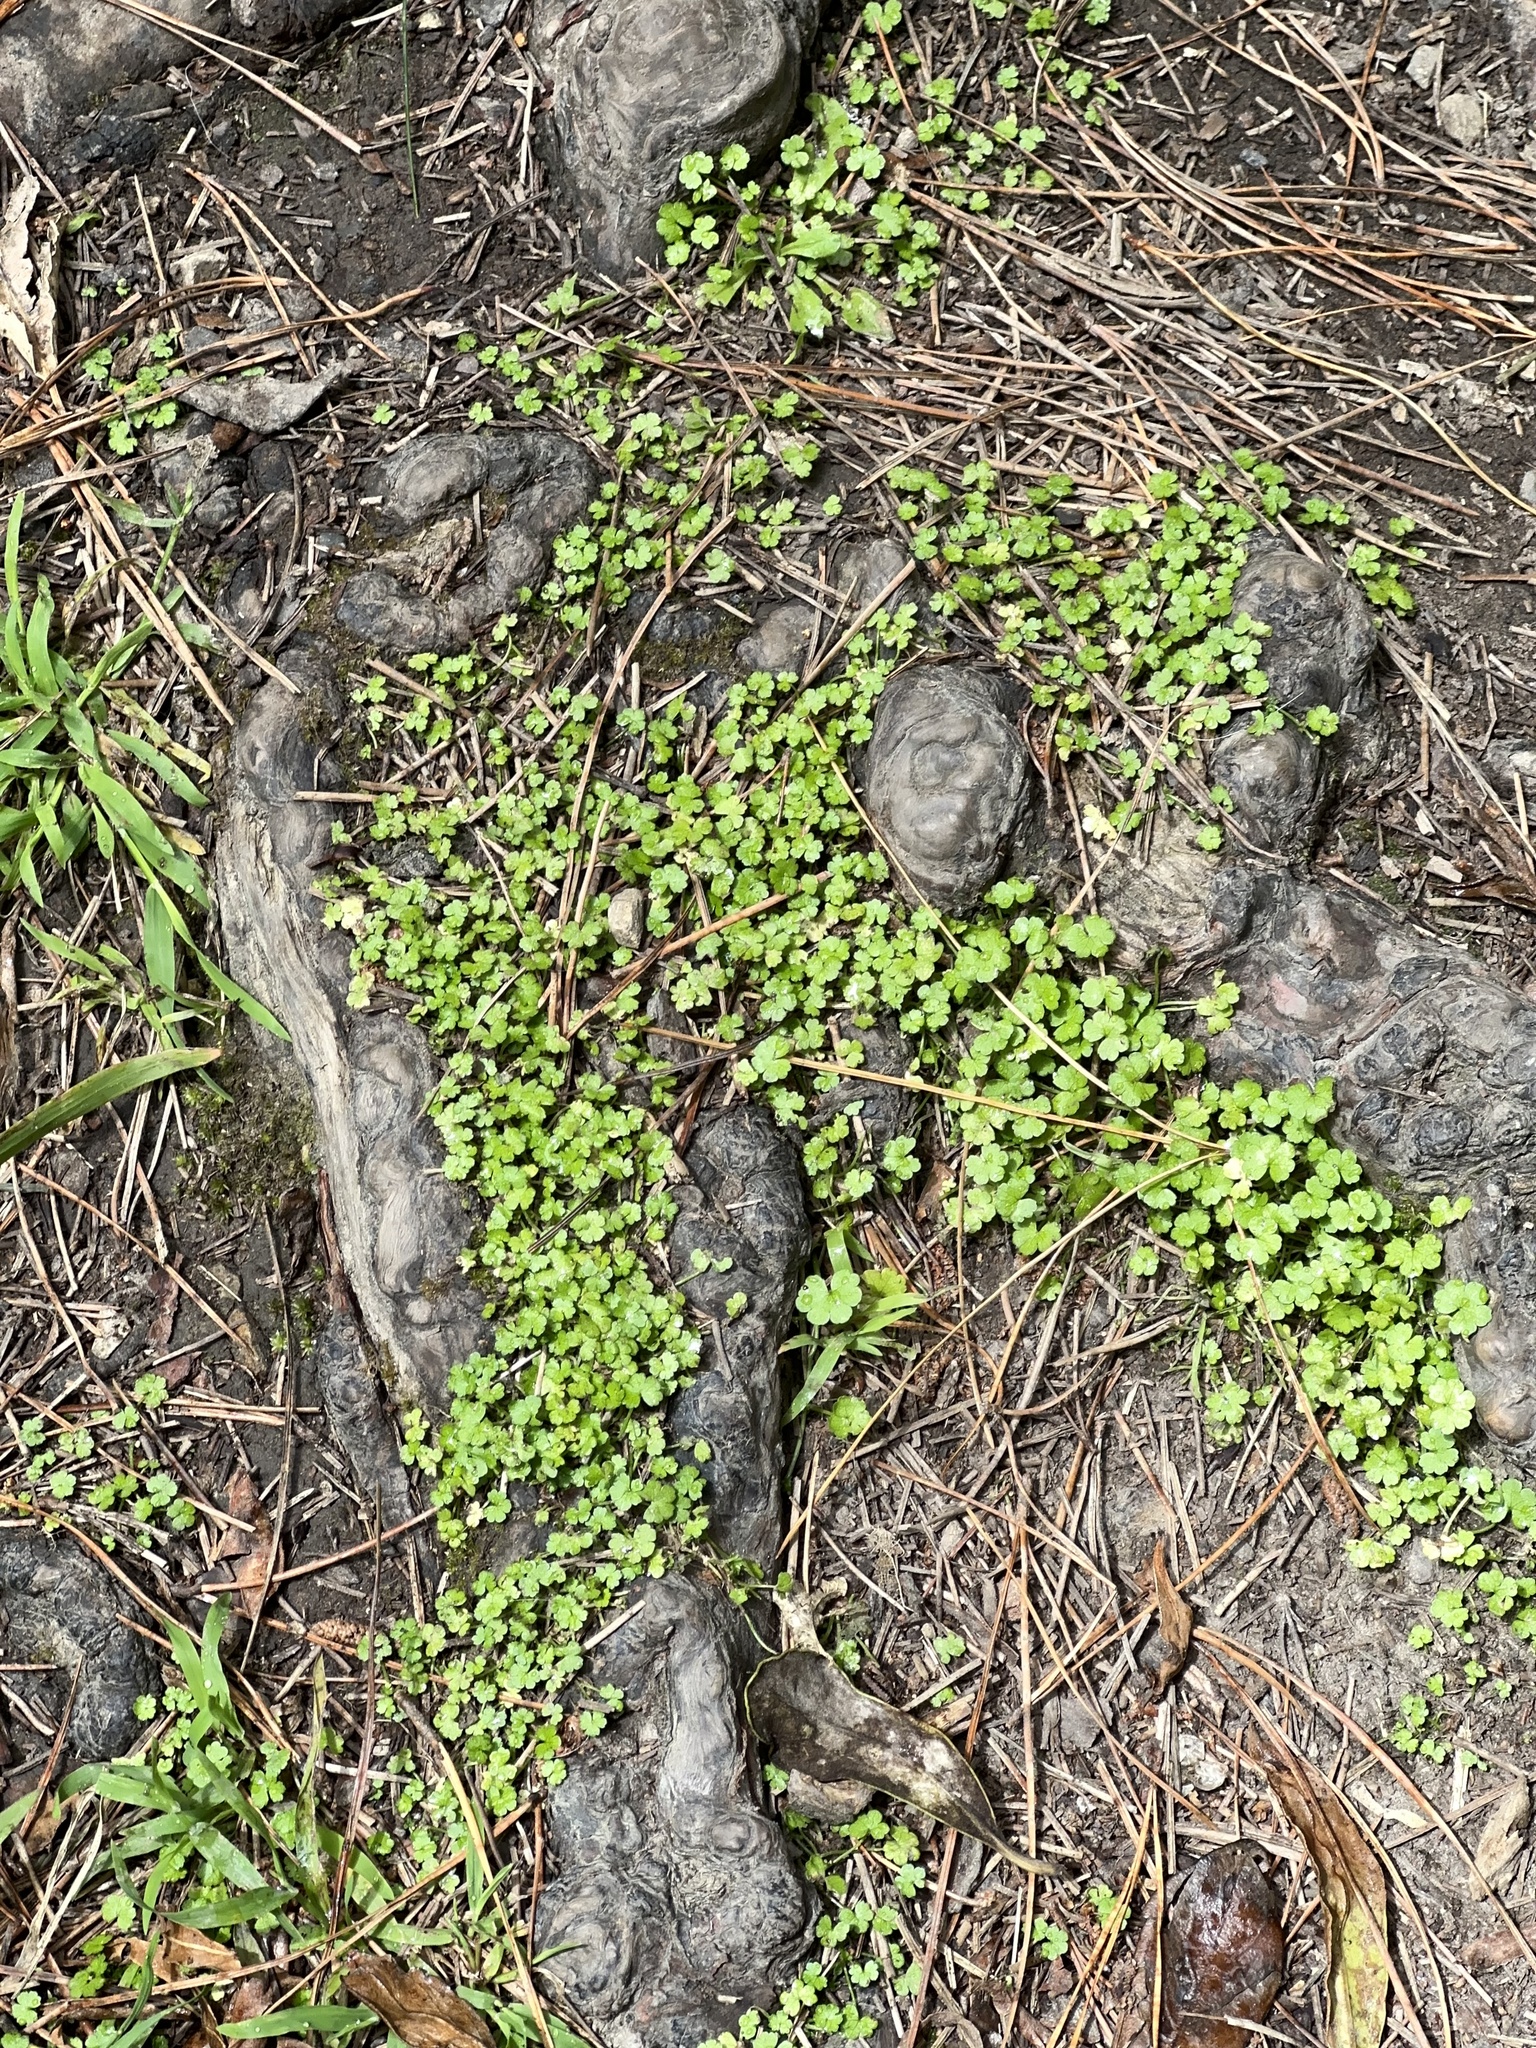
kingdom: Plantae
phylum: Tracheophyta
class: Magnoliopsida
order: Apiales
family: Araliaceae
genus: Hydrocotyle
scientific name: Hydrocotyle heteromeria
